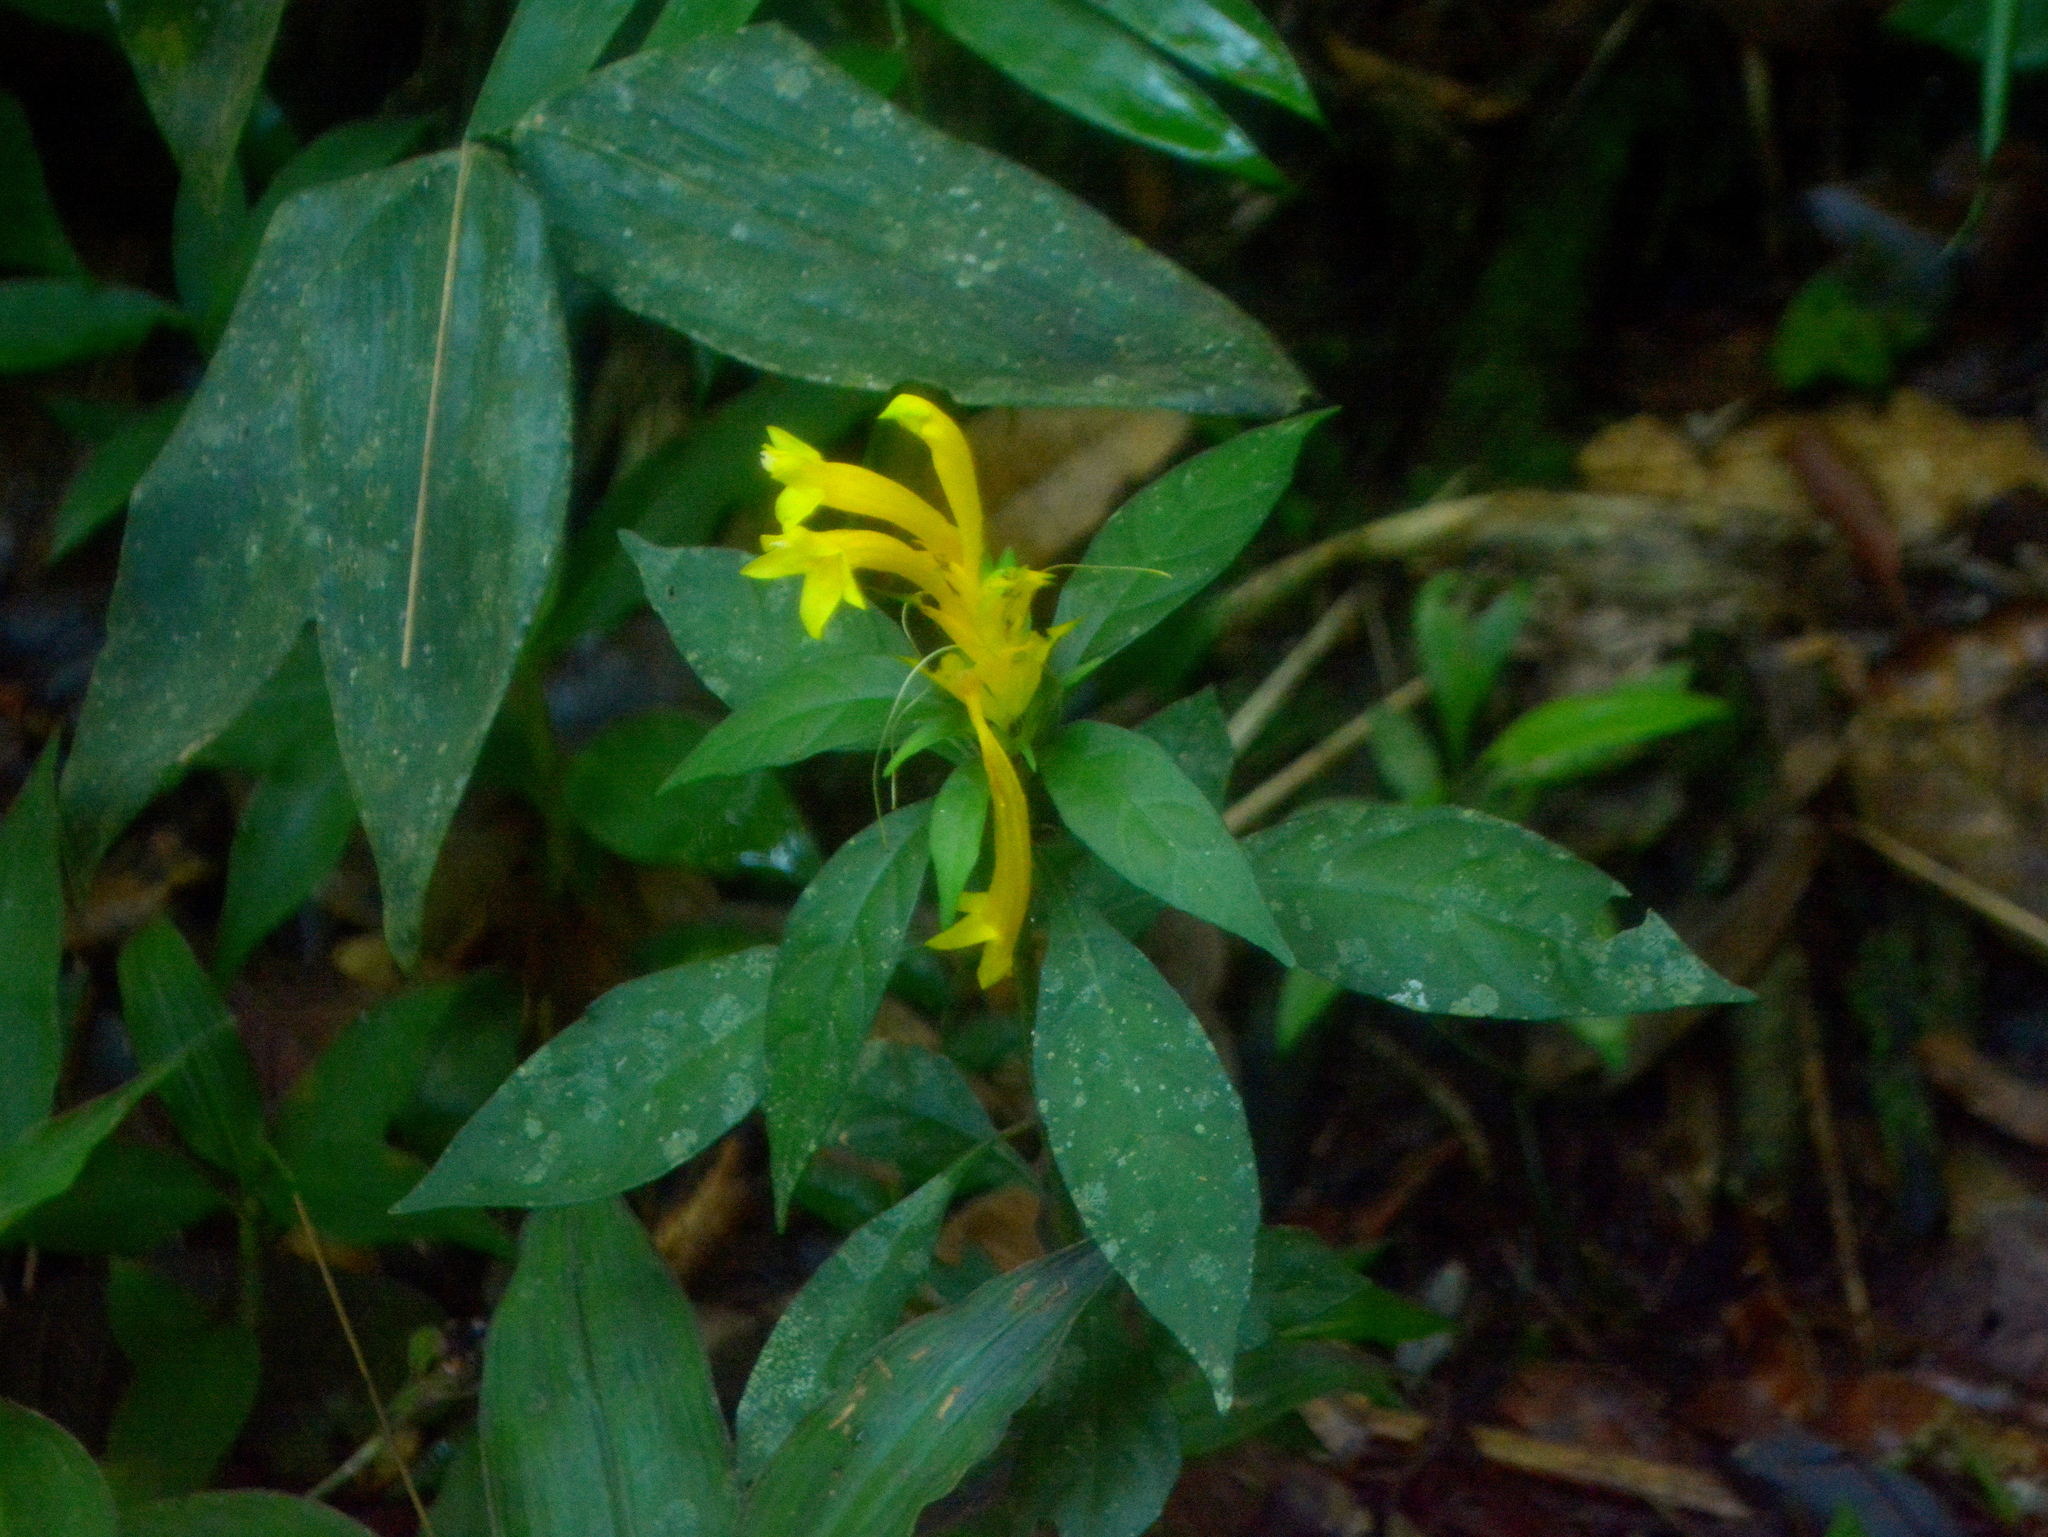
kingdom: Plantae
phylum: Tracheophyta
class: Magnoliopsida
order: Lamiales
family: Acanthaceae
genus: Aphelandra
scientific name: Aphelandra chamissoniana
